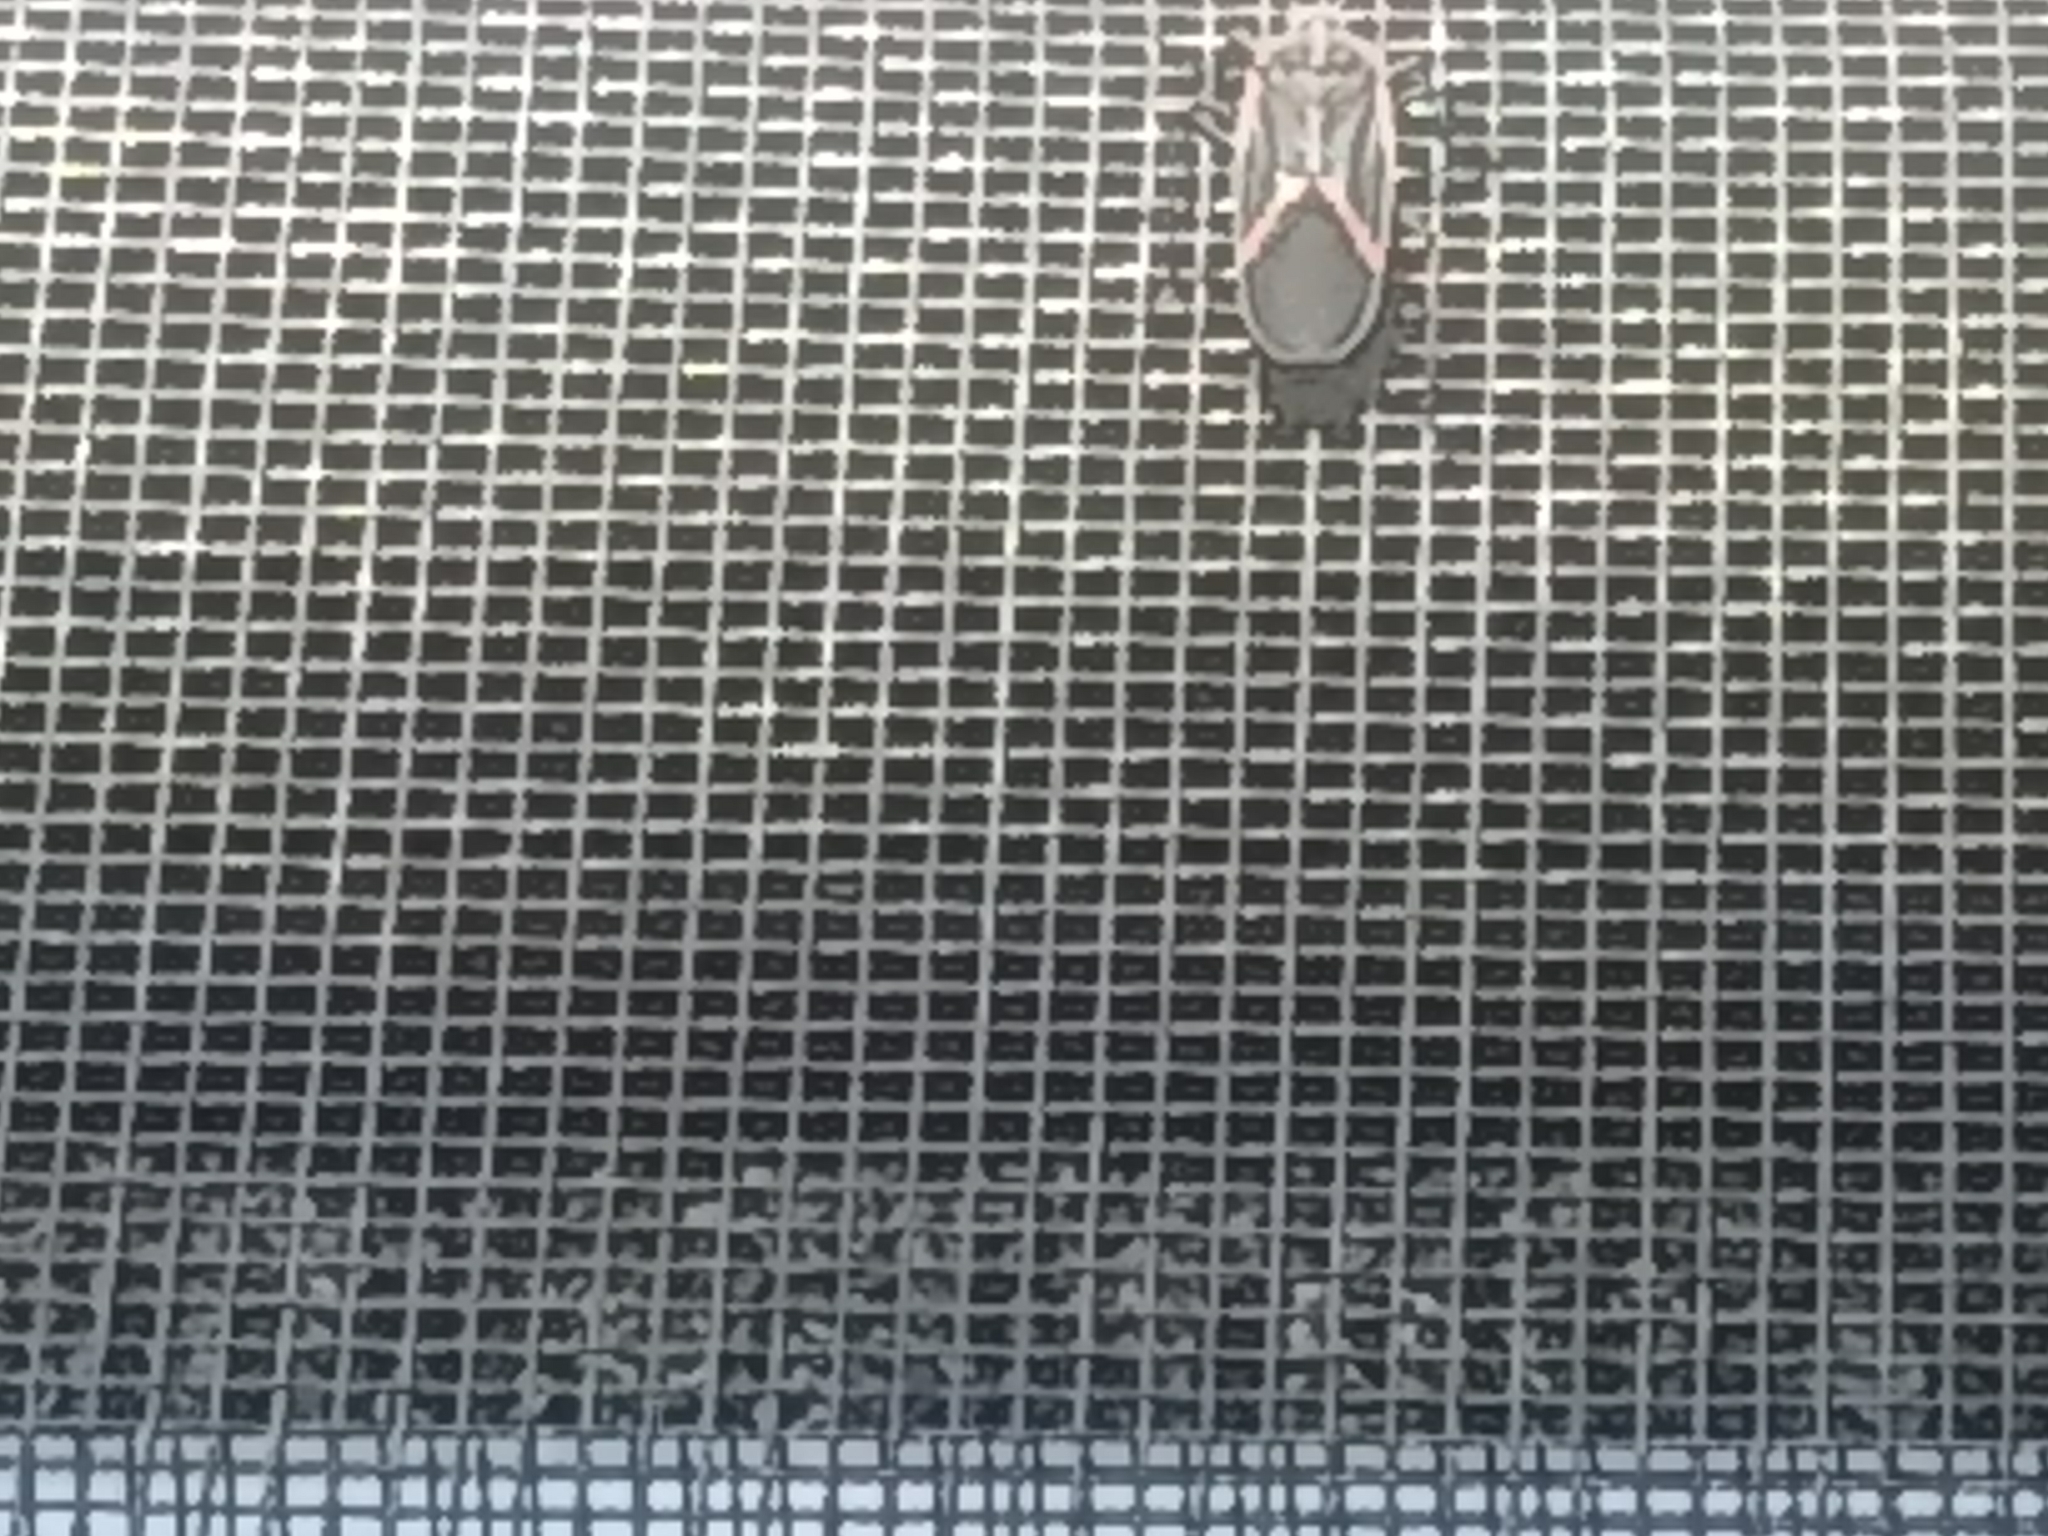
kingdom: Animalia
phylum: Arthropoda
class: Insecta
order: Hemiptera
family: Rhopalidae
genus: Boisea
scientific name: Boisea trivittata
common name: Boxelder bug
